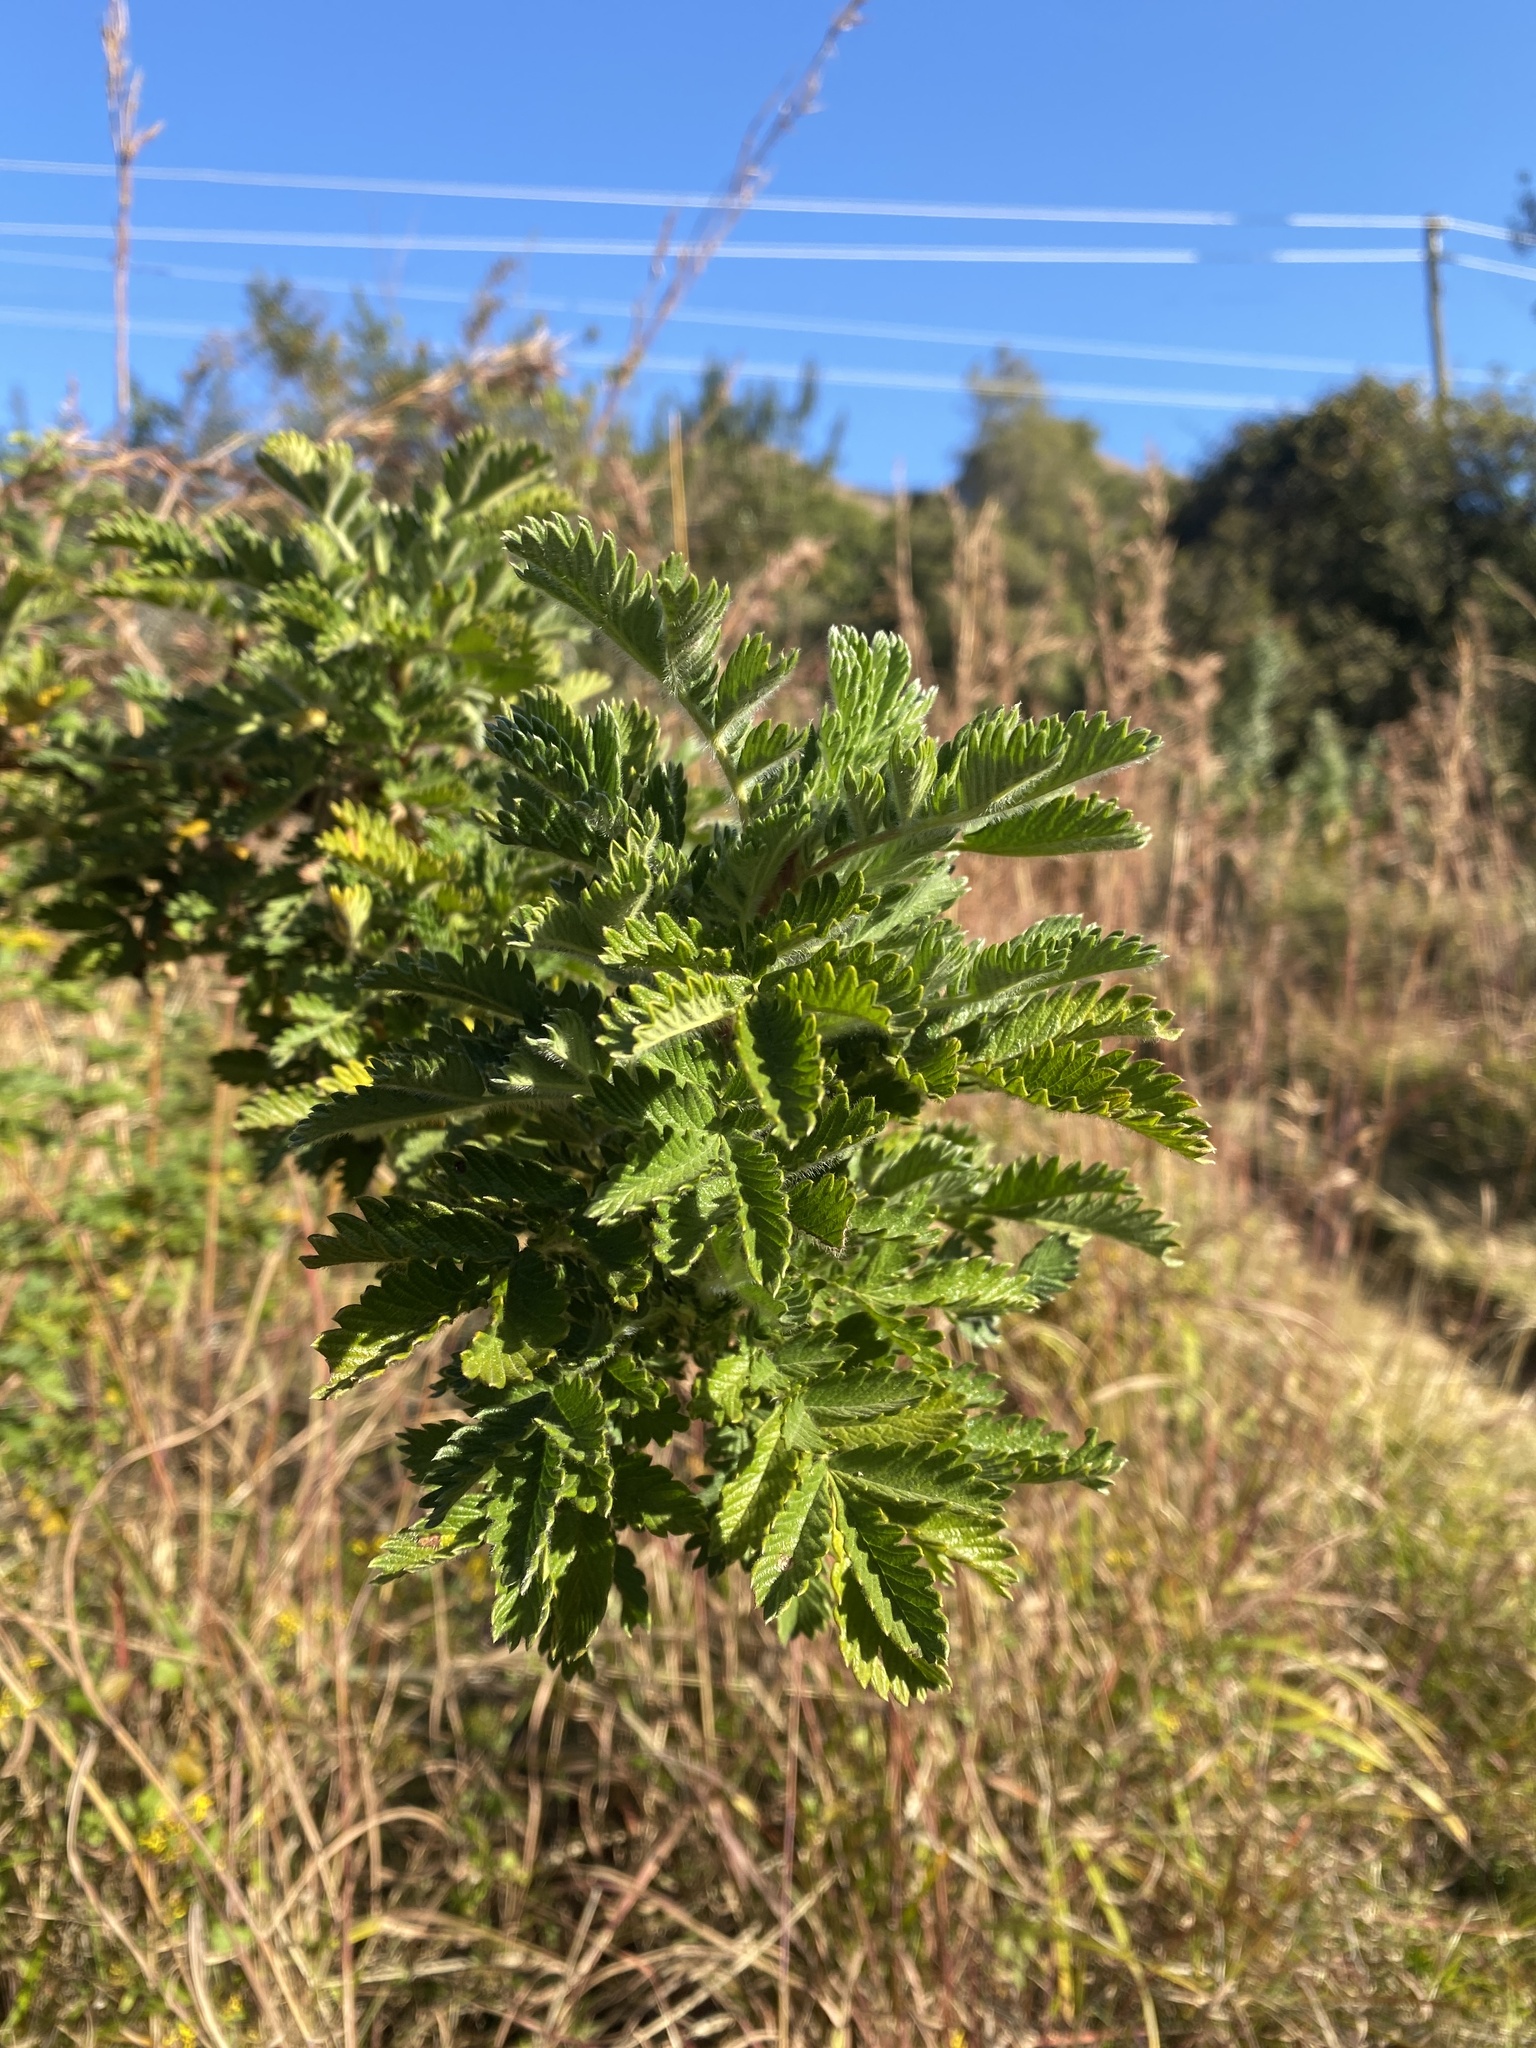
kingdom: Plantae
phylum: Tracheophyta
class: Magnoliopsida
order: Rosales
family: Rosaceae
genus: Leucosidea
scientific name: Leucosidea sericea
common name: Oldwood
